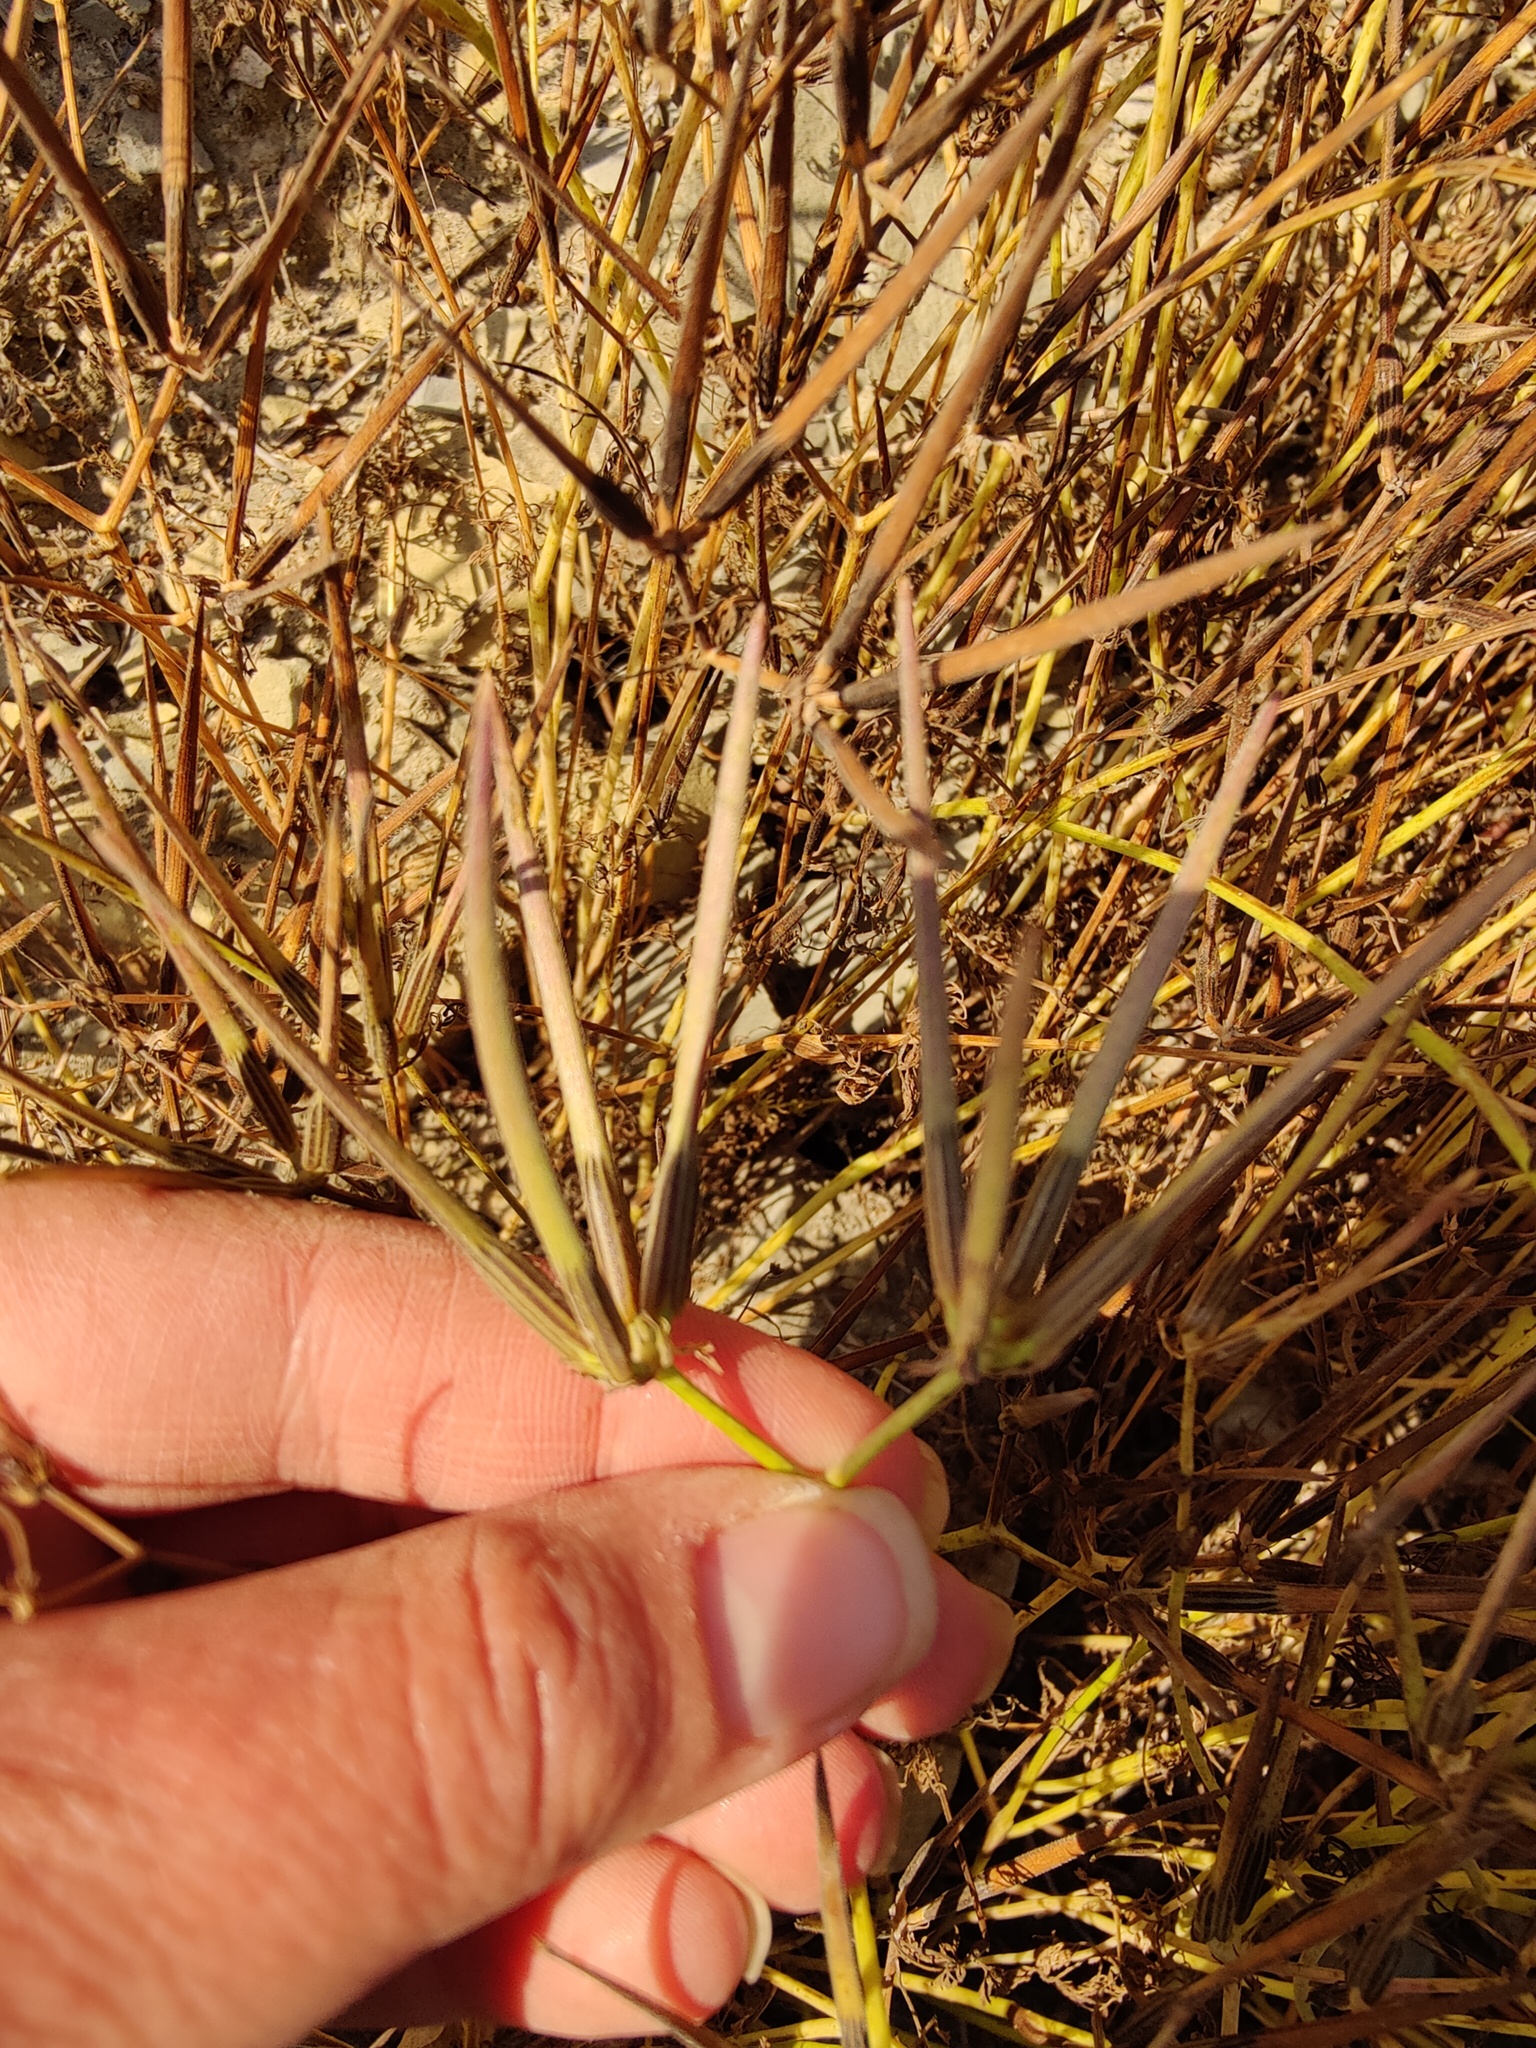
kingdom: Plantae
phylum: Tracheophyta
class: Magnoliopsida
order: Apiales
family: Apiaceae
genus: Scandix
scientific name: Scandix pecten-veneris
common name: Shepherd's-needle
